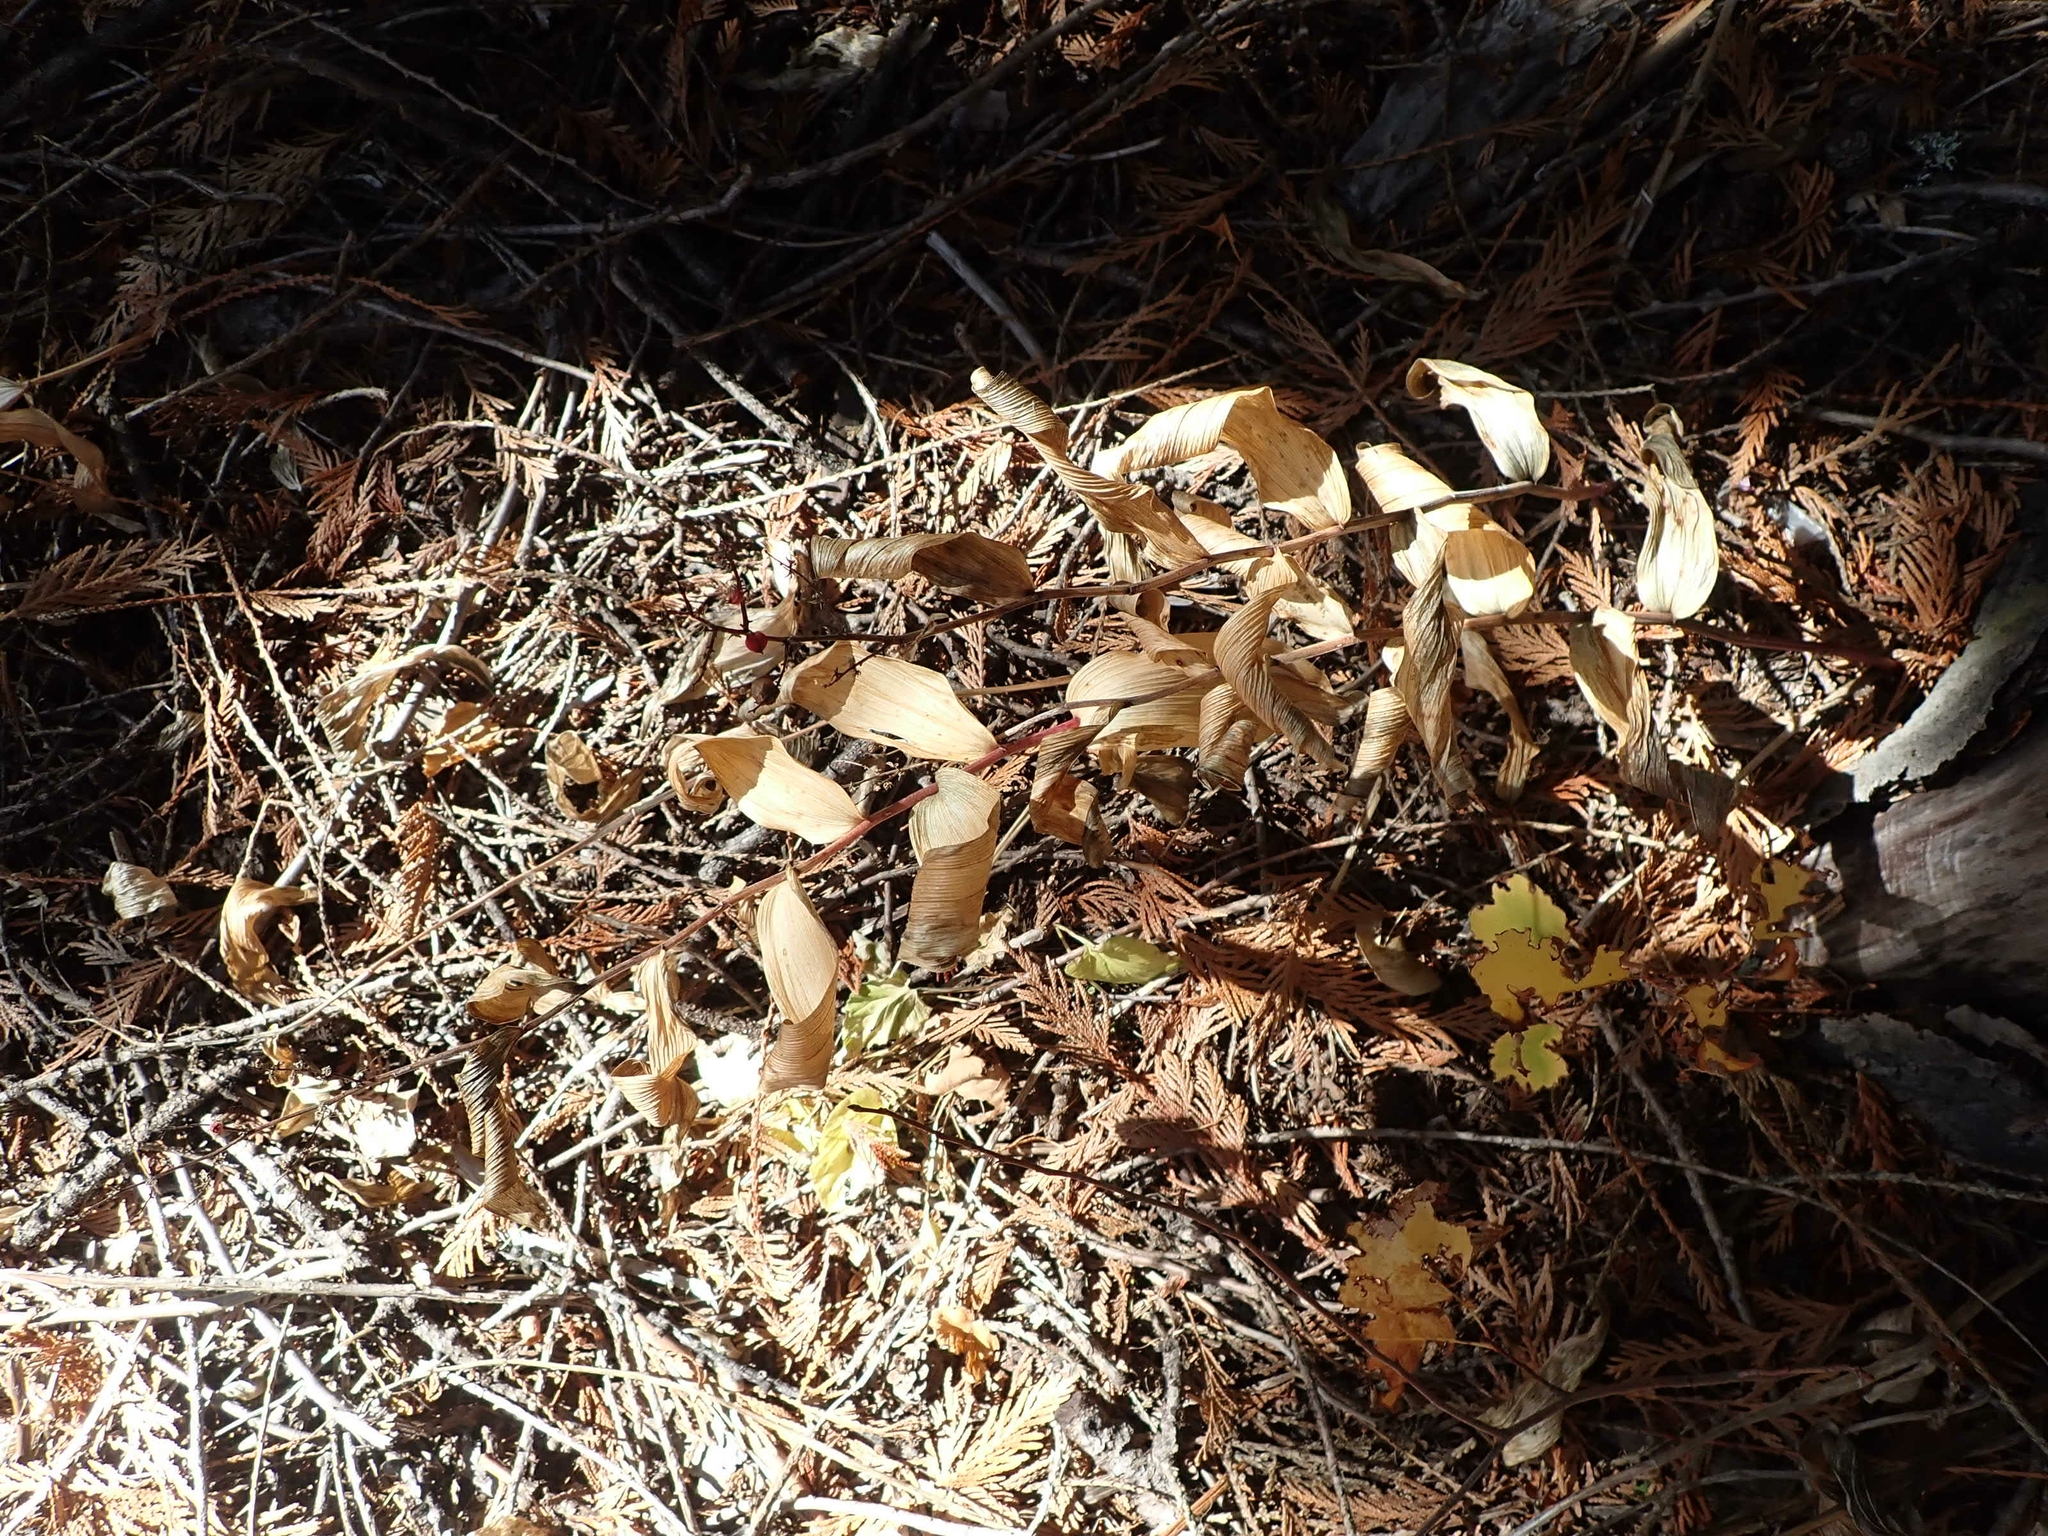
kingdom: Plantae
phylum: Tracheophyta
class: Liliopsida
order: Asparagales
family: Asparagaceae
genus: Maianthemum
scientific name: Maianthemum racemosum
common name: False spikenard
